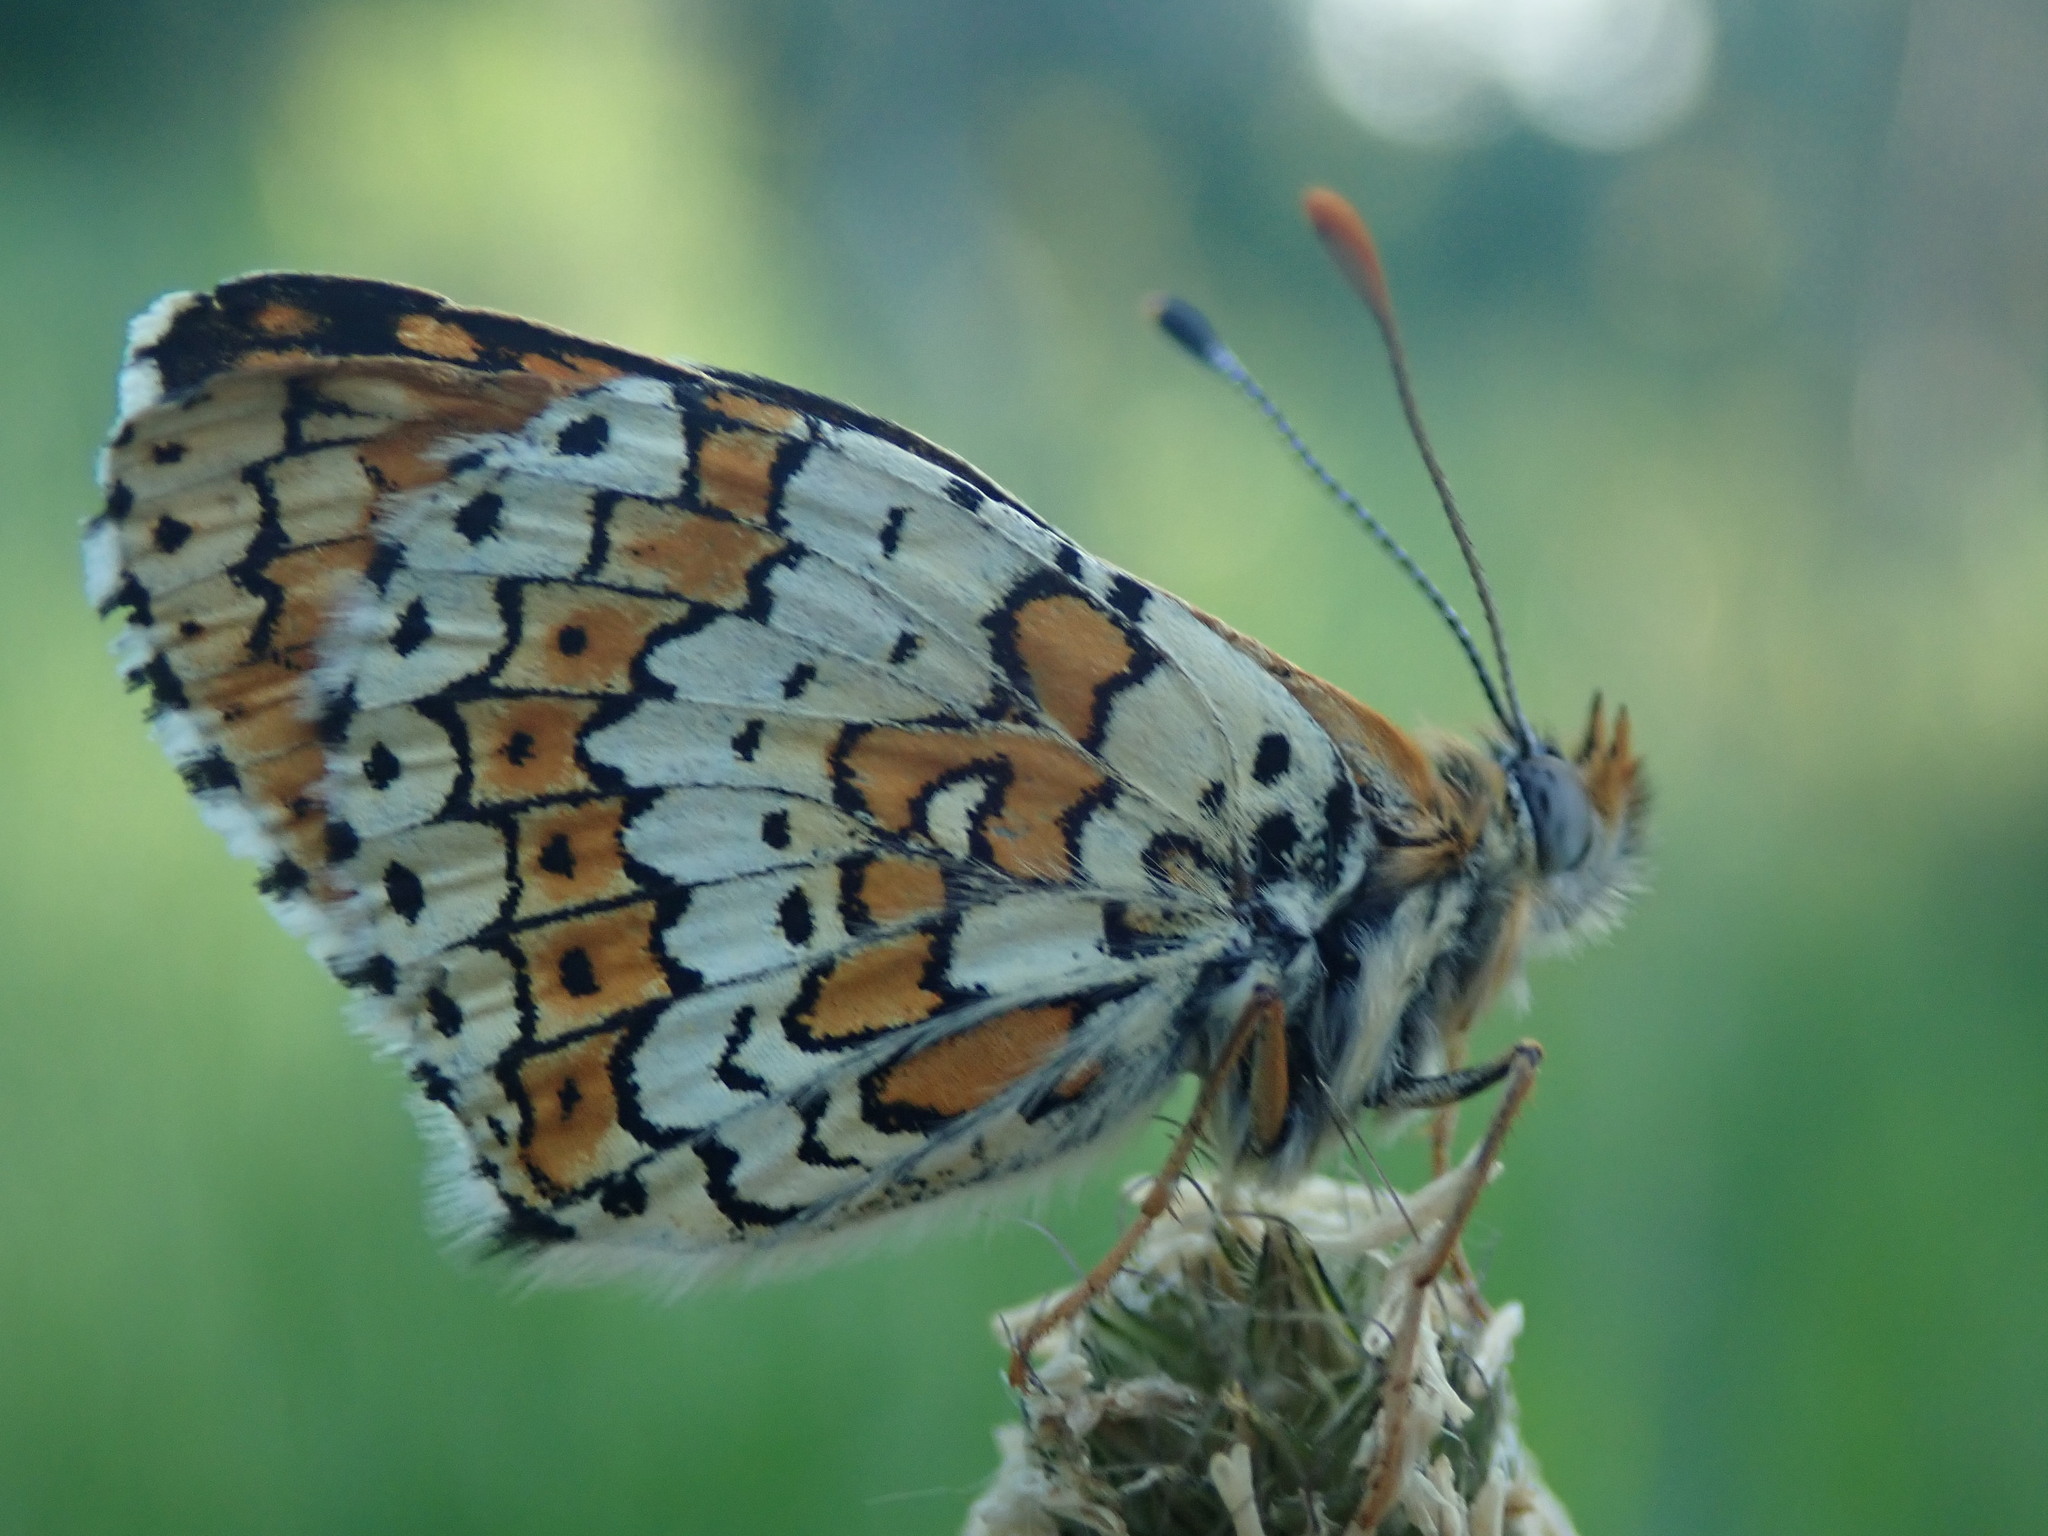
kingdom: Animalia
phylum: Arthropoda
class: Insecta
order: Lepidoptera
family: Nymphalidae
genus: Melitaea
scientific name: Melitaea cinxia
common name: Glanville fritillary
